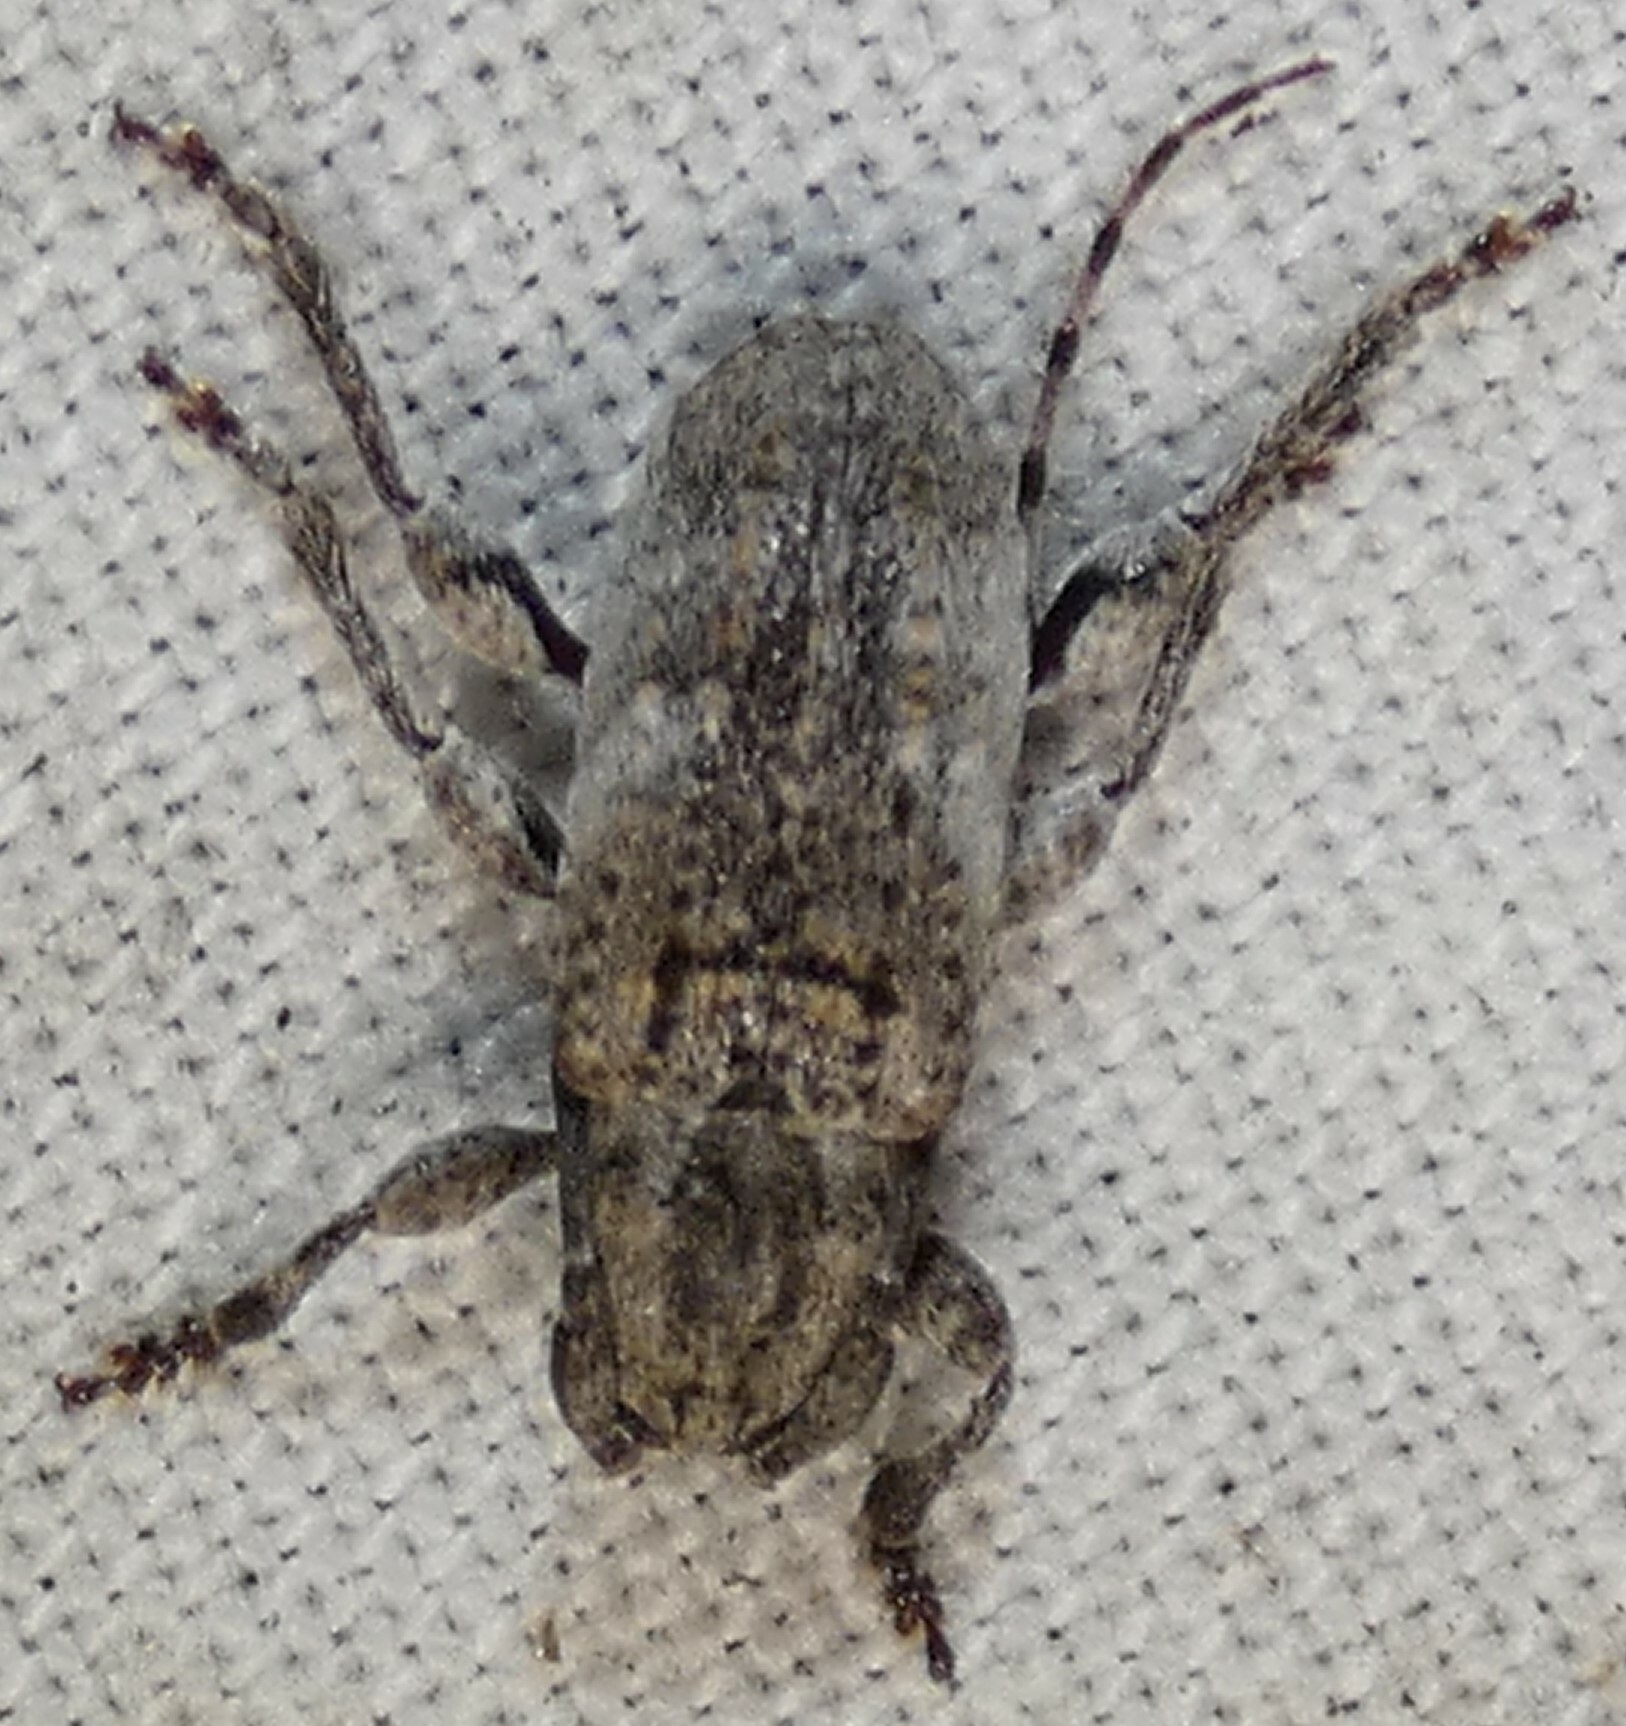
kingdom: Animalia
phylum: Arthropoda
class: Insecta
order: Coleoptera
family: Cerambycidae
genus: Ecyrus
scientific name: Ecyrus dasycerus
